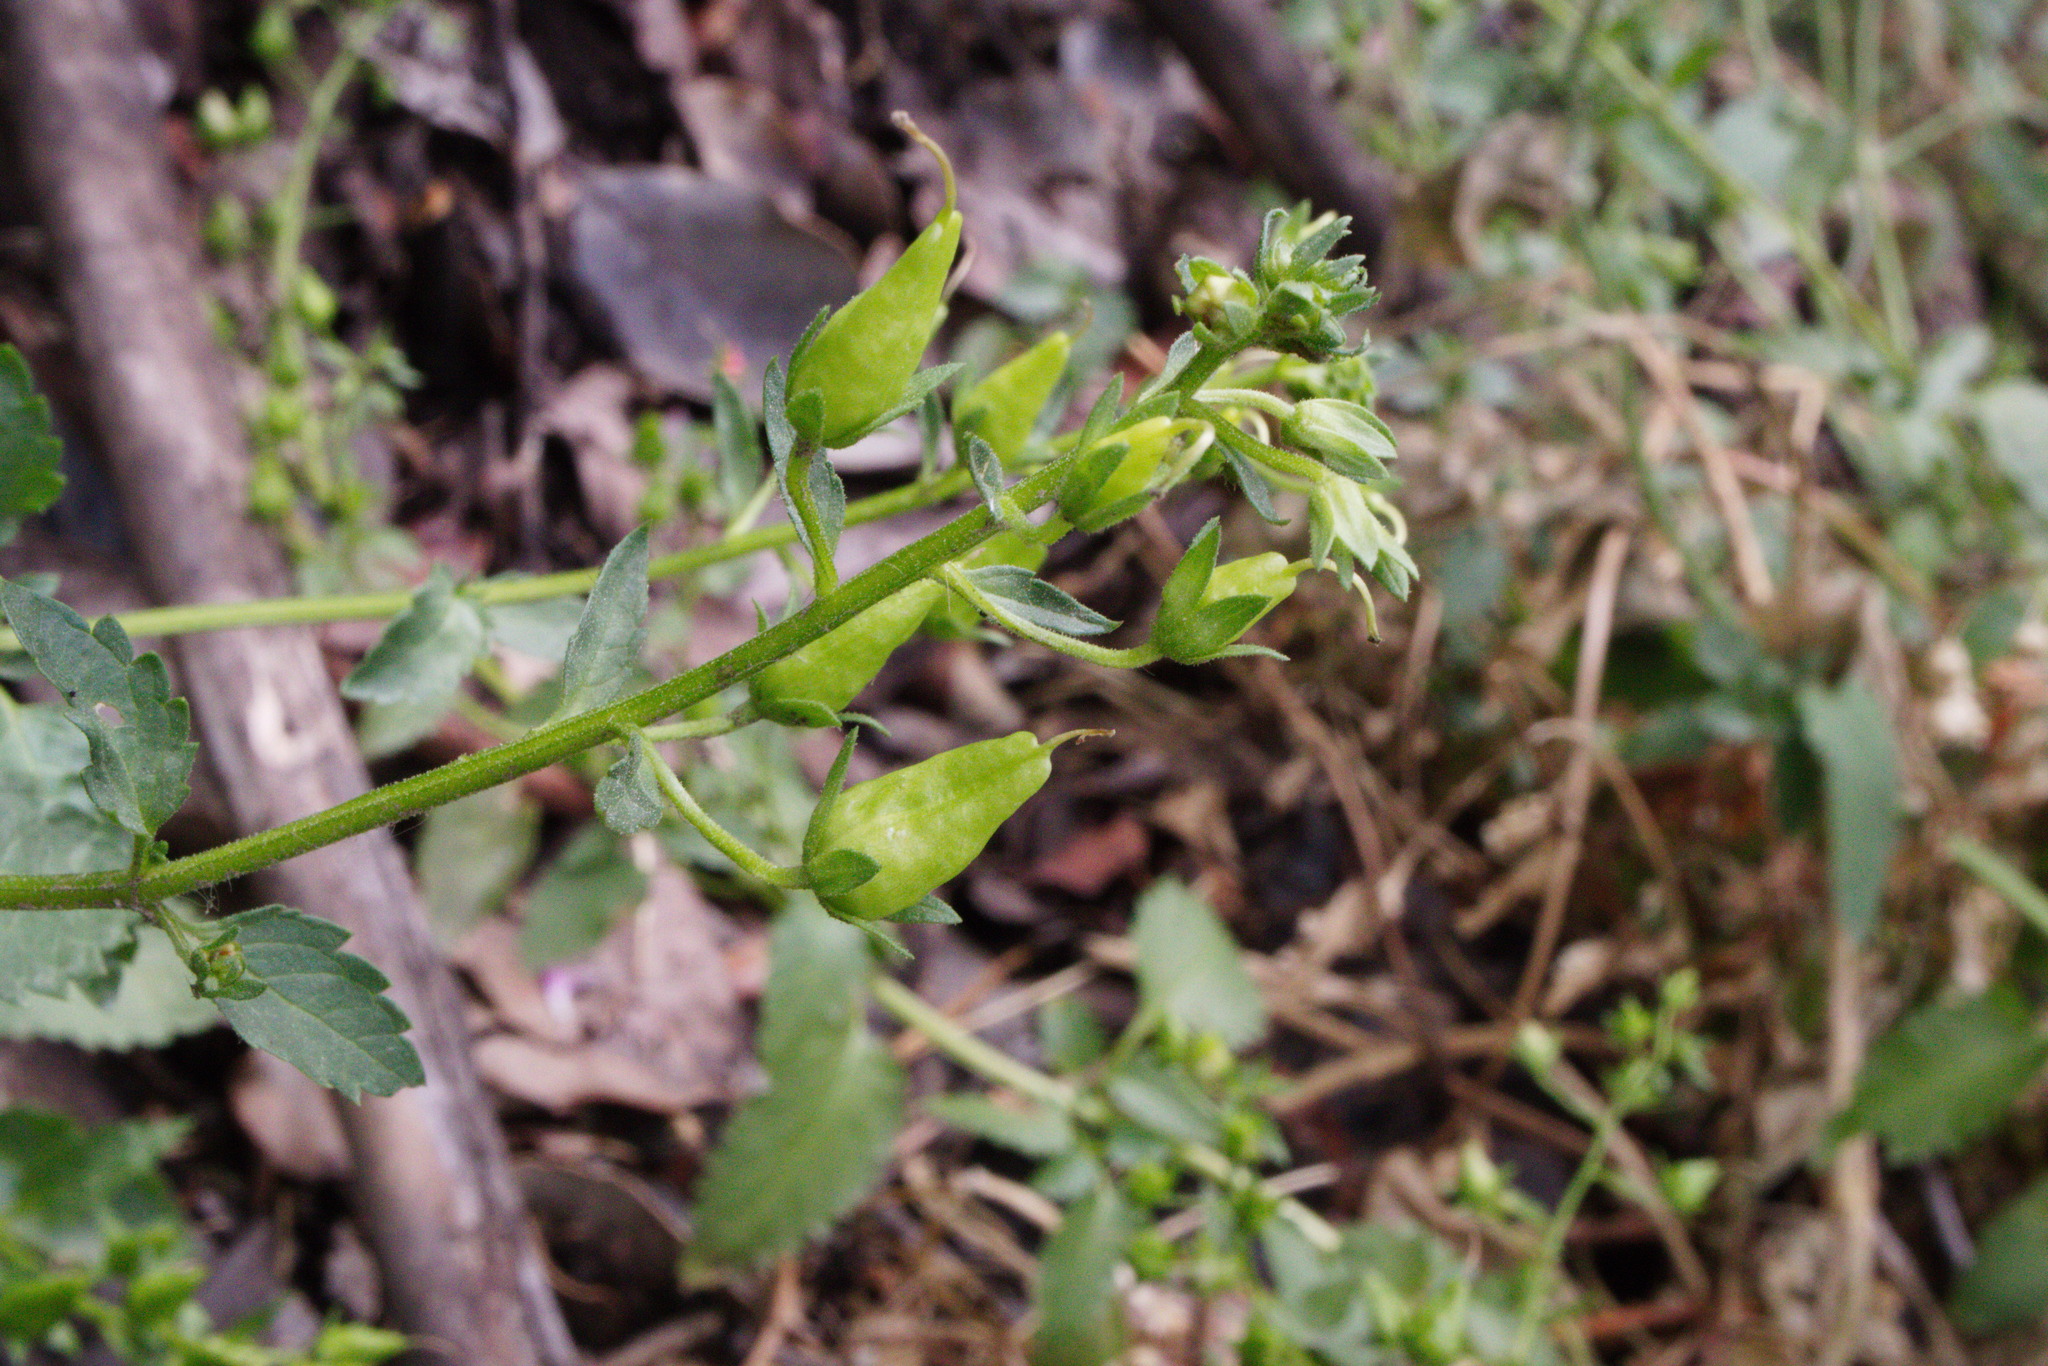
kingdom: Plantae
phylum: Tracheophyta
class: Magnoliopsida
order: Lamiales
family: Scrophulariaceae
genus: Alonsoa
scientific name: Alonsoa meridionalis
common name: Maskflower
